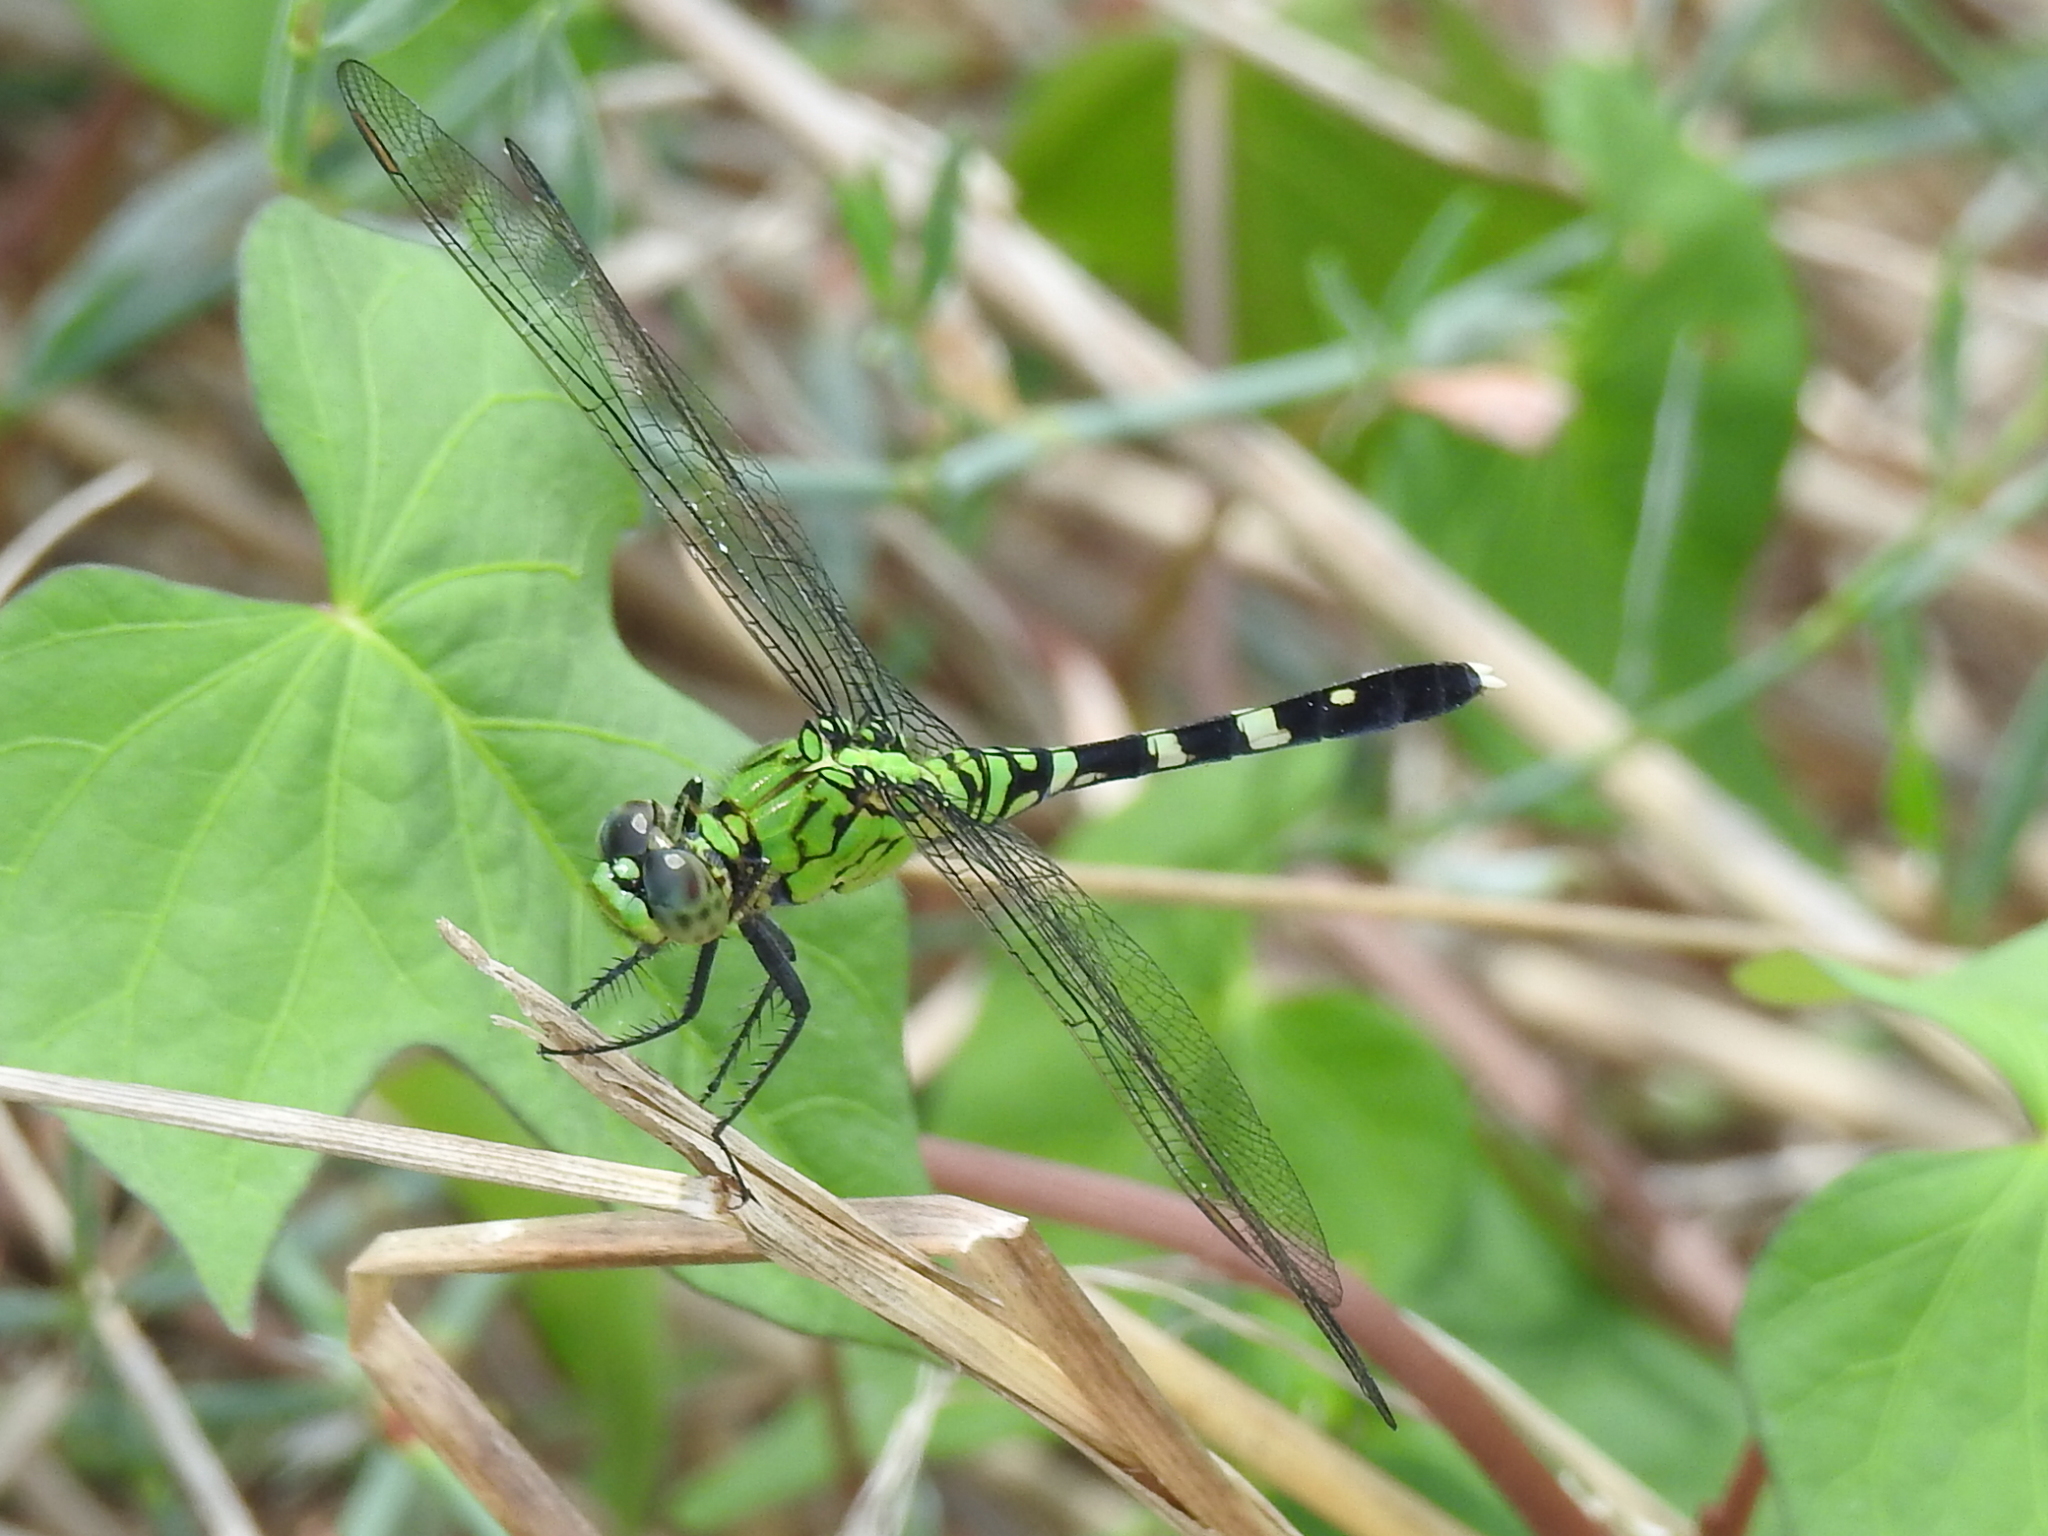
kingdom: Animalia
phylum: Arthropoda
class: Insecta
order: Odonata
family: Libellulidae
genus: Erythemis
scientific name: Erythemis simplicicollis
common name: Eastern pondhawk
